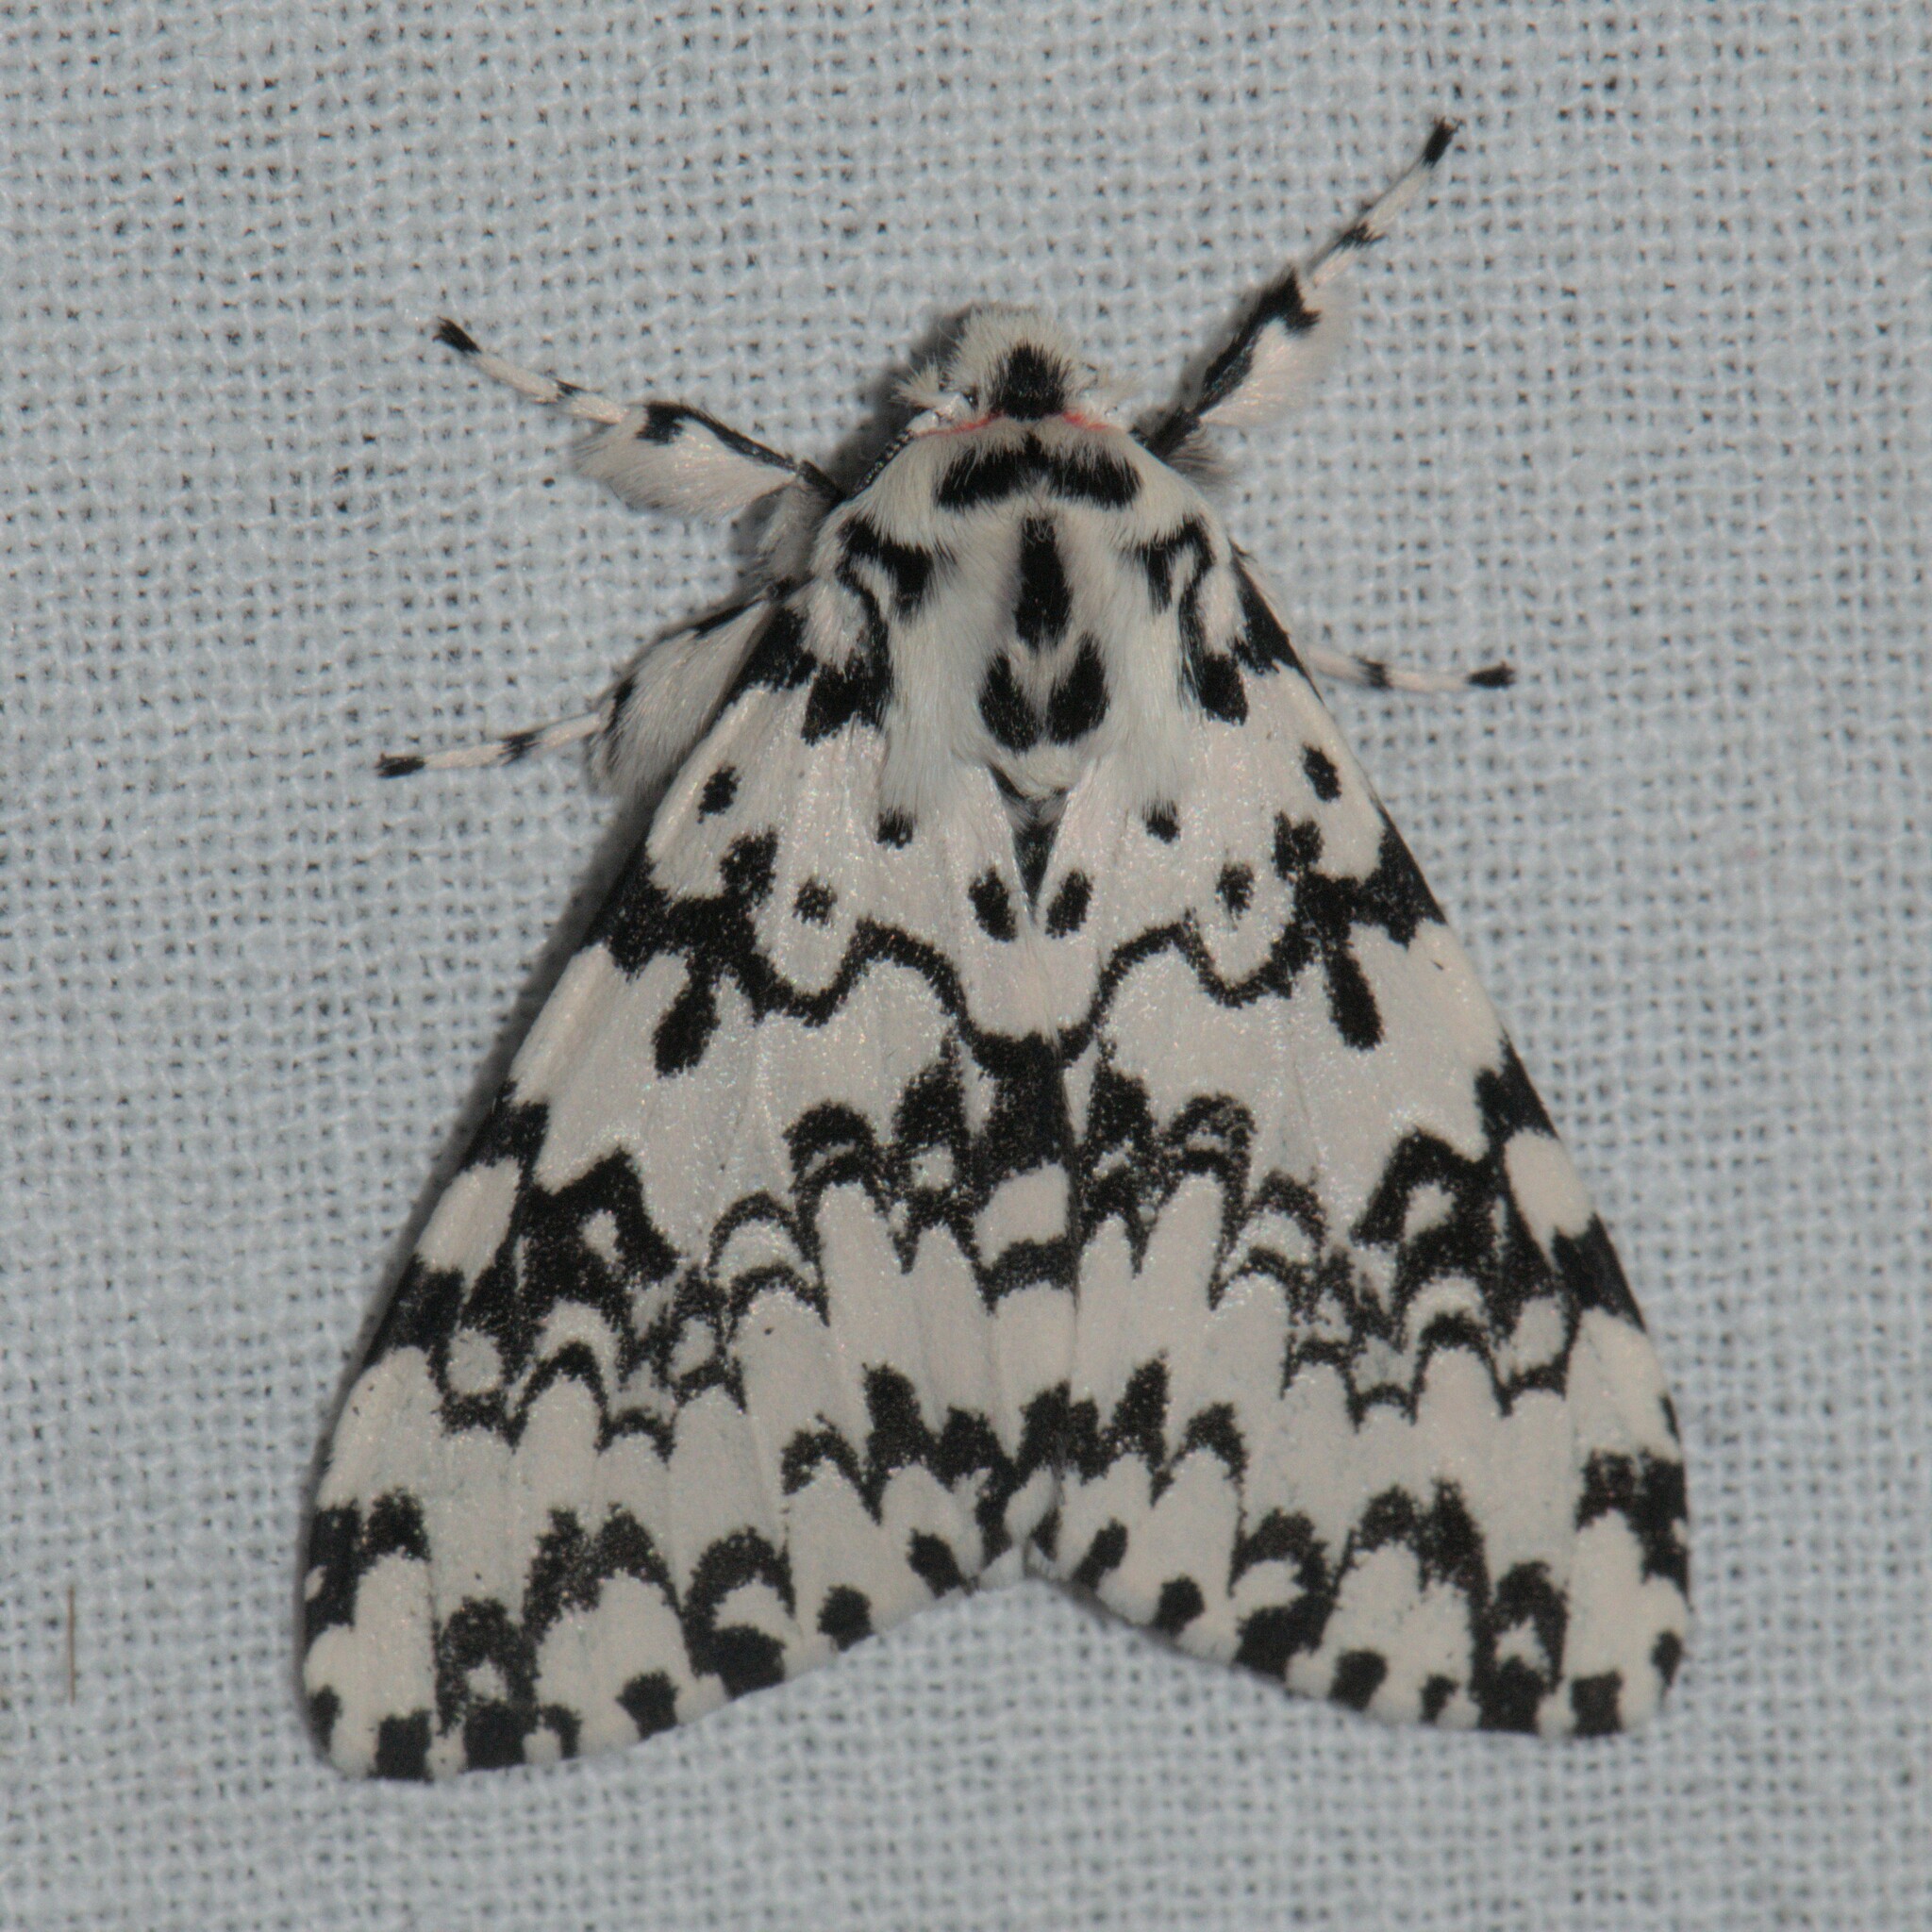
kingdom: Animalia
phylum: Arthropoda
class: Insecta
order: Lepidoptera
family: Erebidae
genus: Lymantria
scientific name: Lymantria concolor
